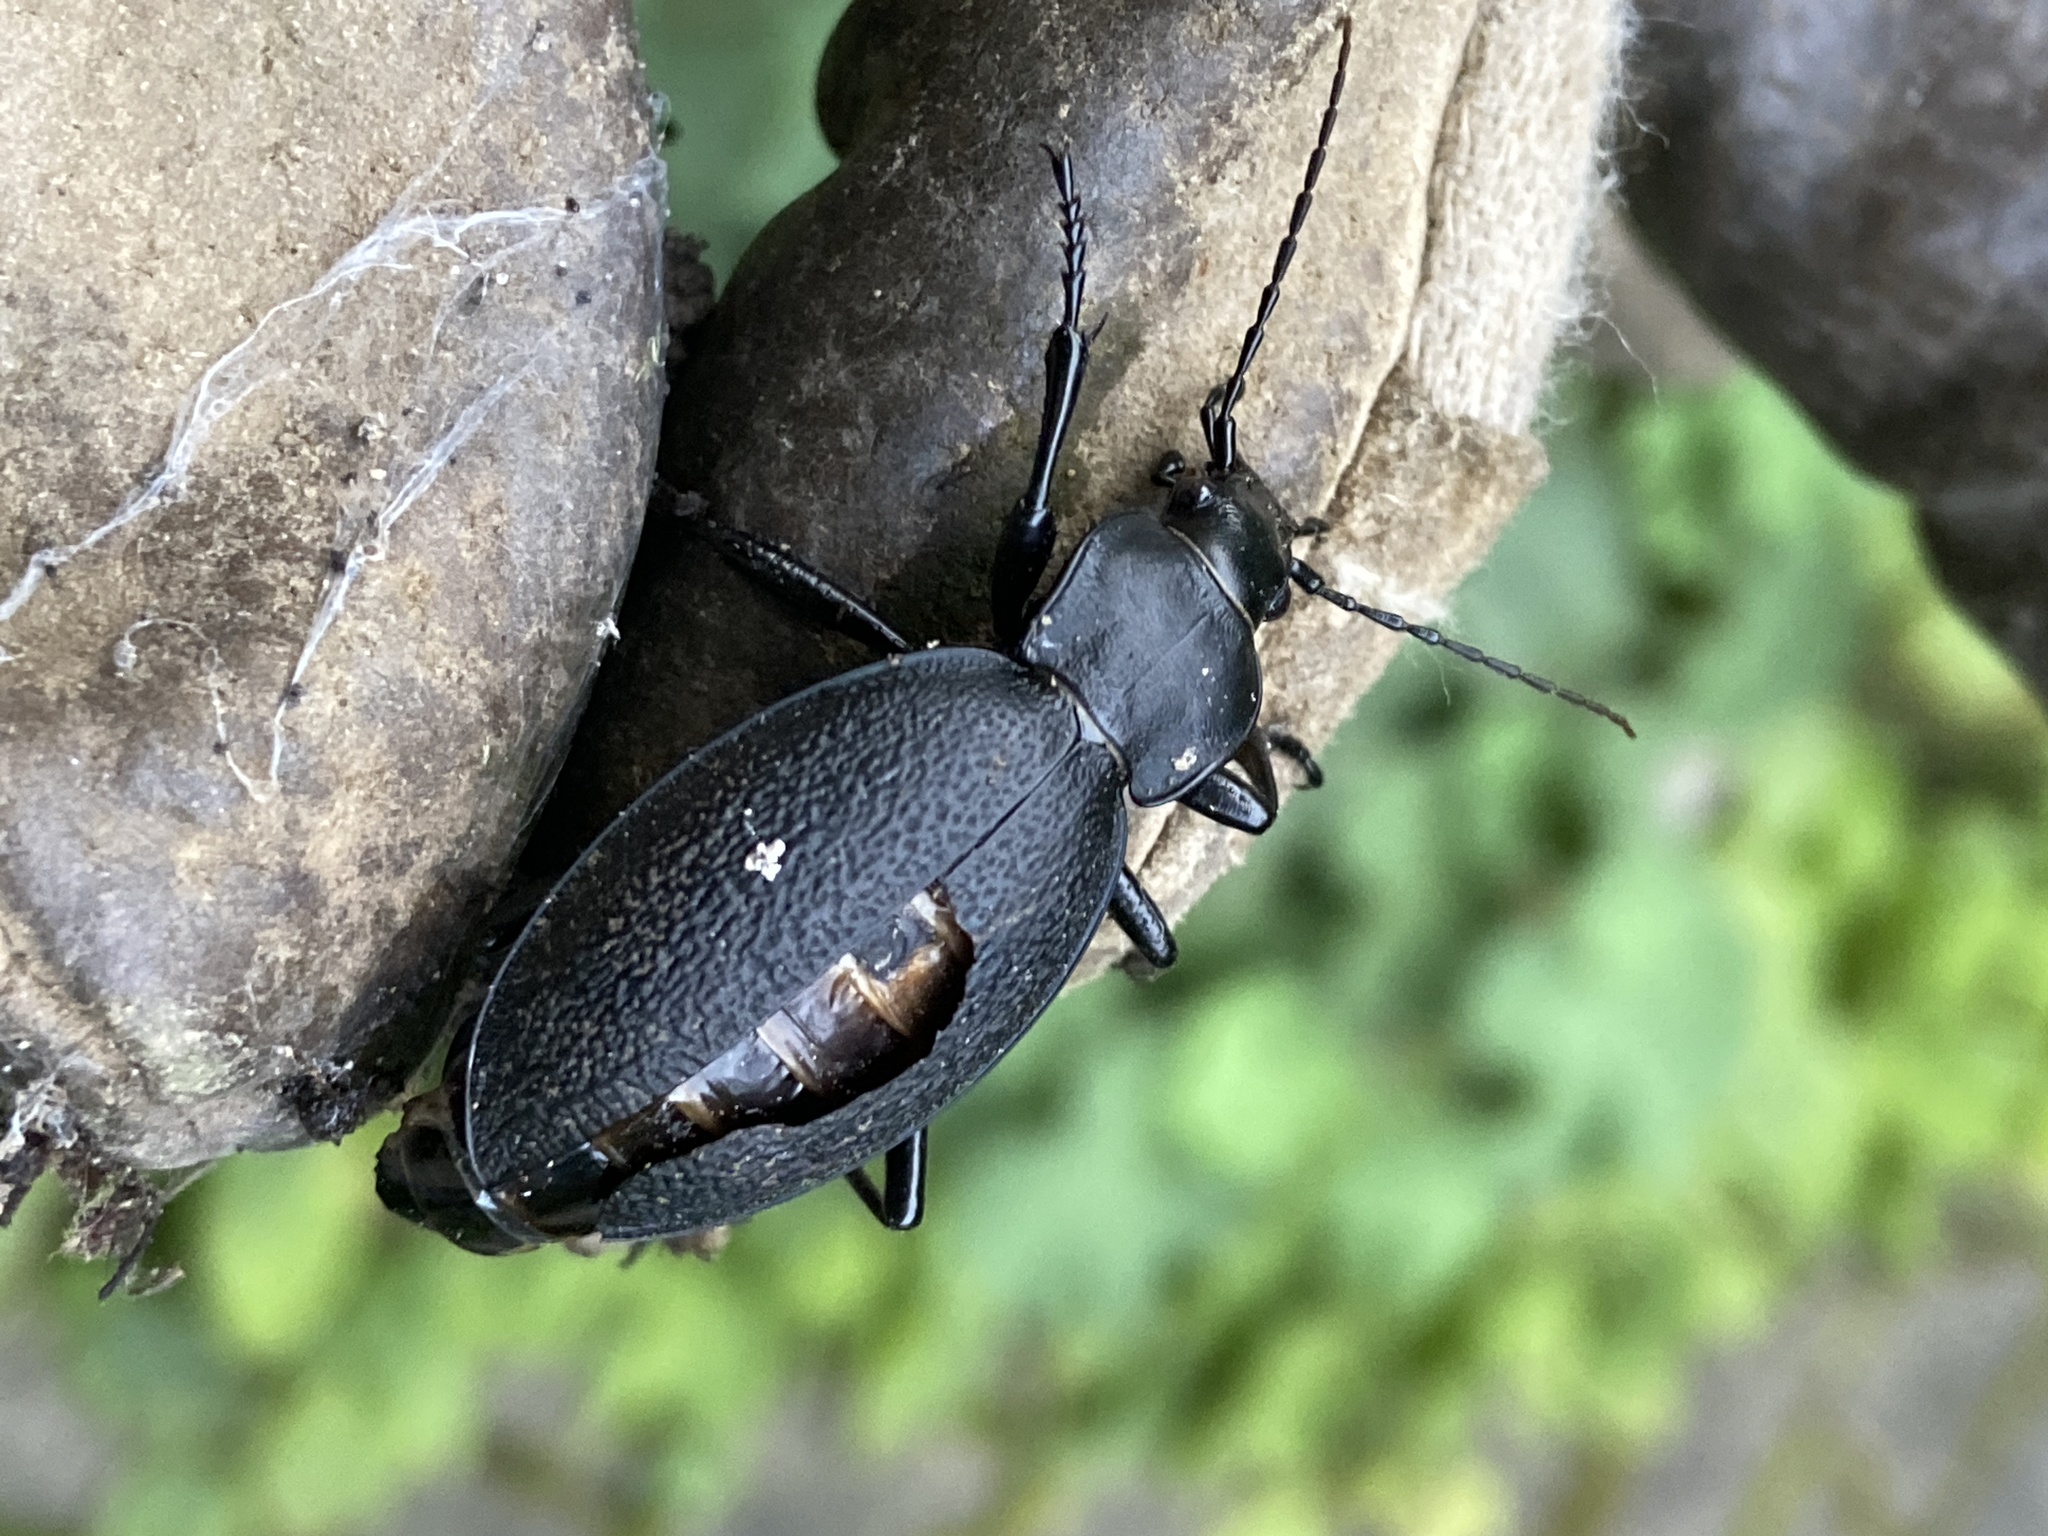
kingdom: Animalia
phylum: Arthropoda
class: Insecta
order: Coleoptera
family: Carabidae
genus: Carabus
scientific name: Carabus coriaceus
